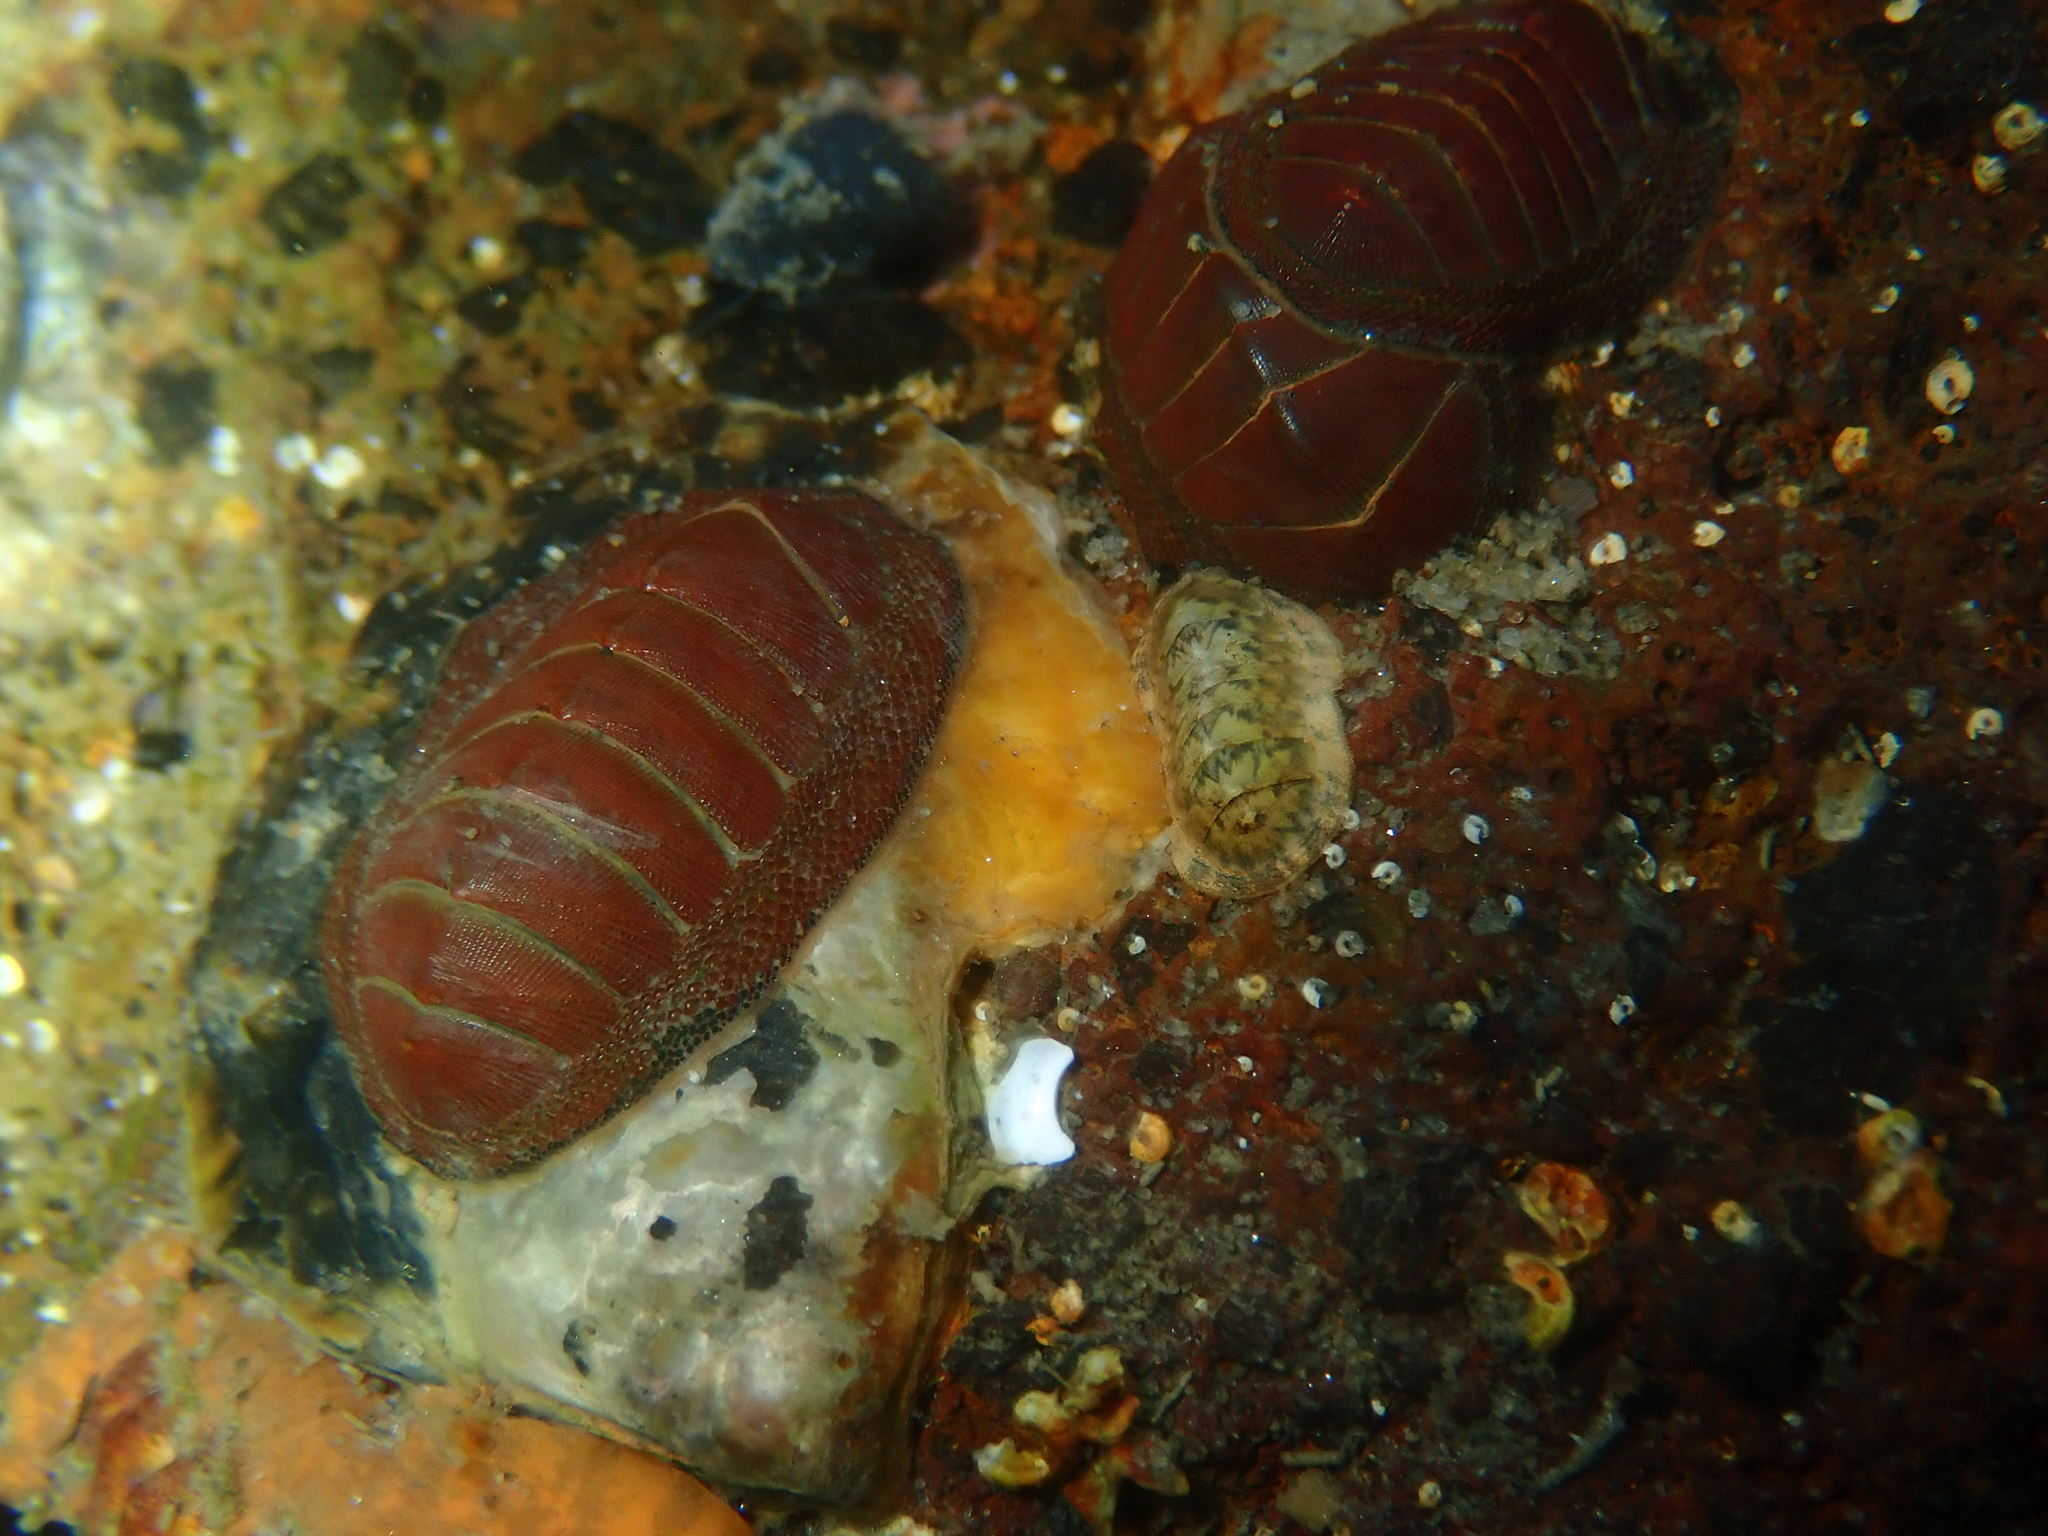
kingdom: Animalia
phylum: Mollusca
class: Polyplacophora
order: Chitonida
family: Chitonidae
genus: Chiton
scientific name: Chiton glaucus
